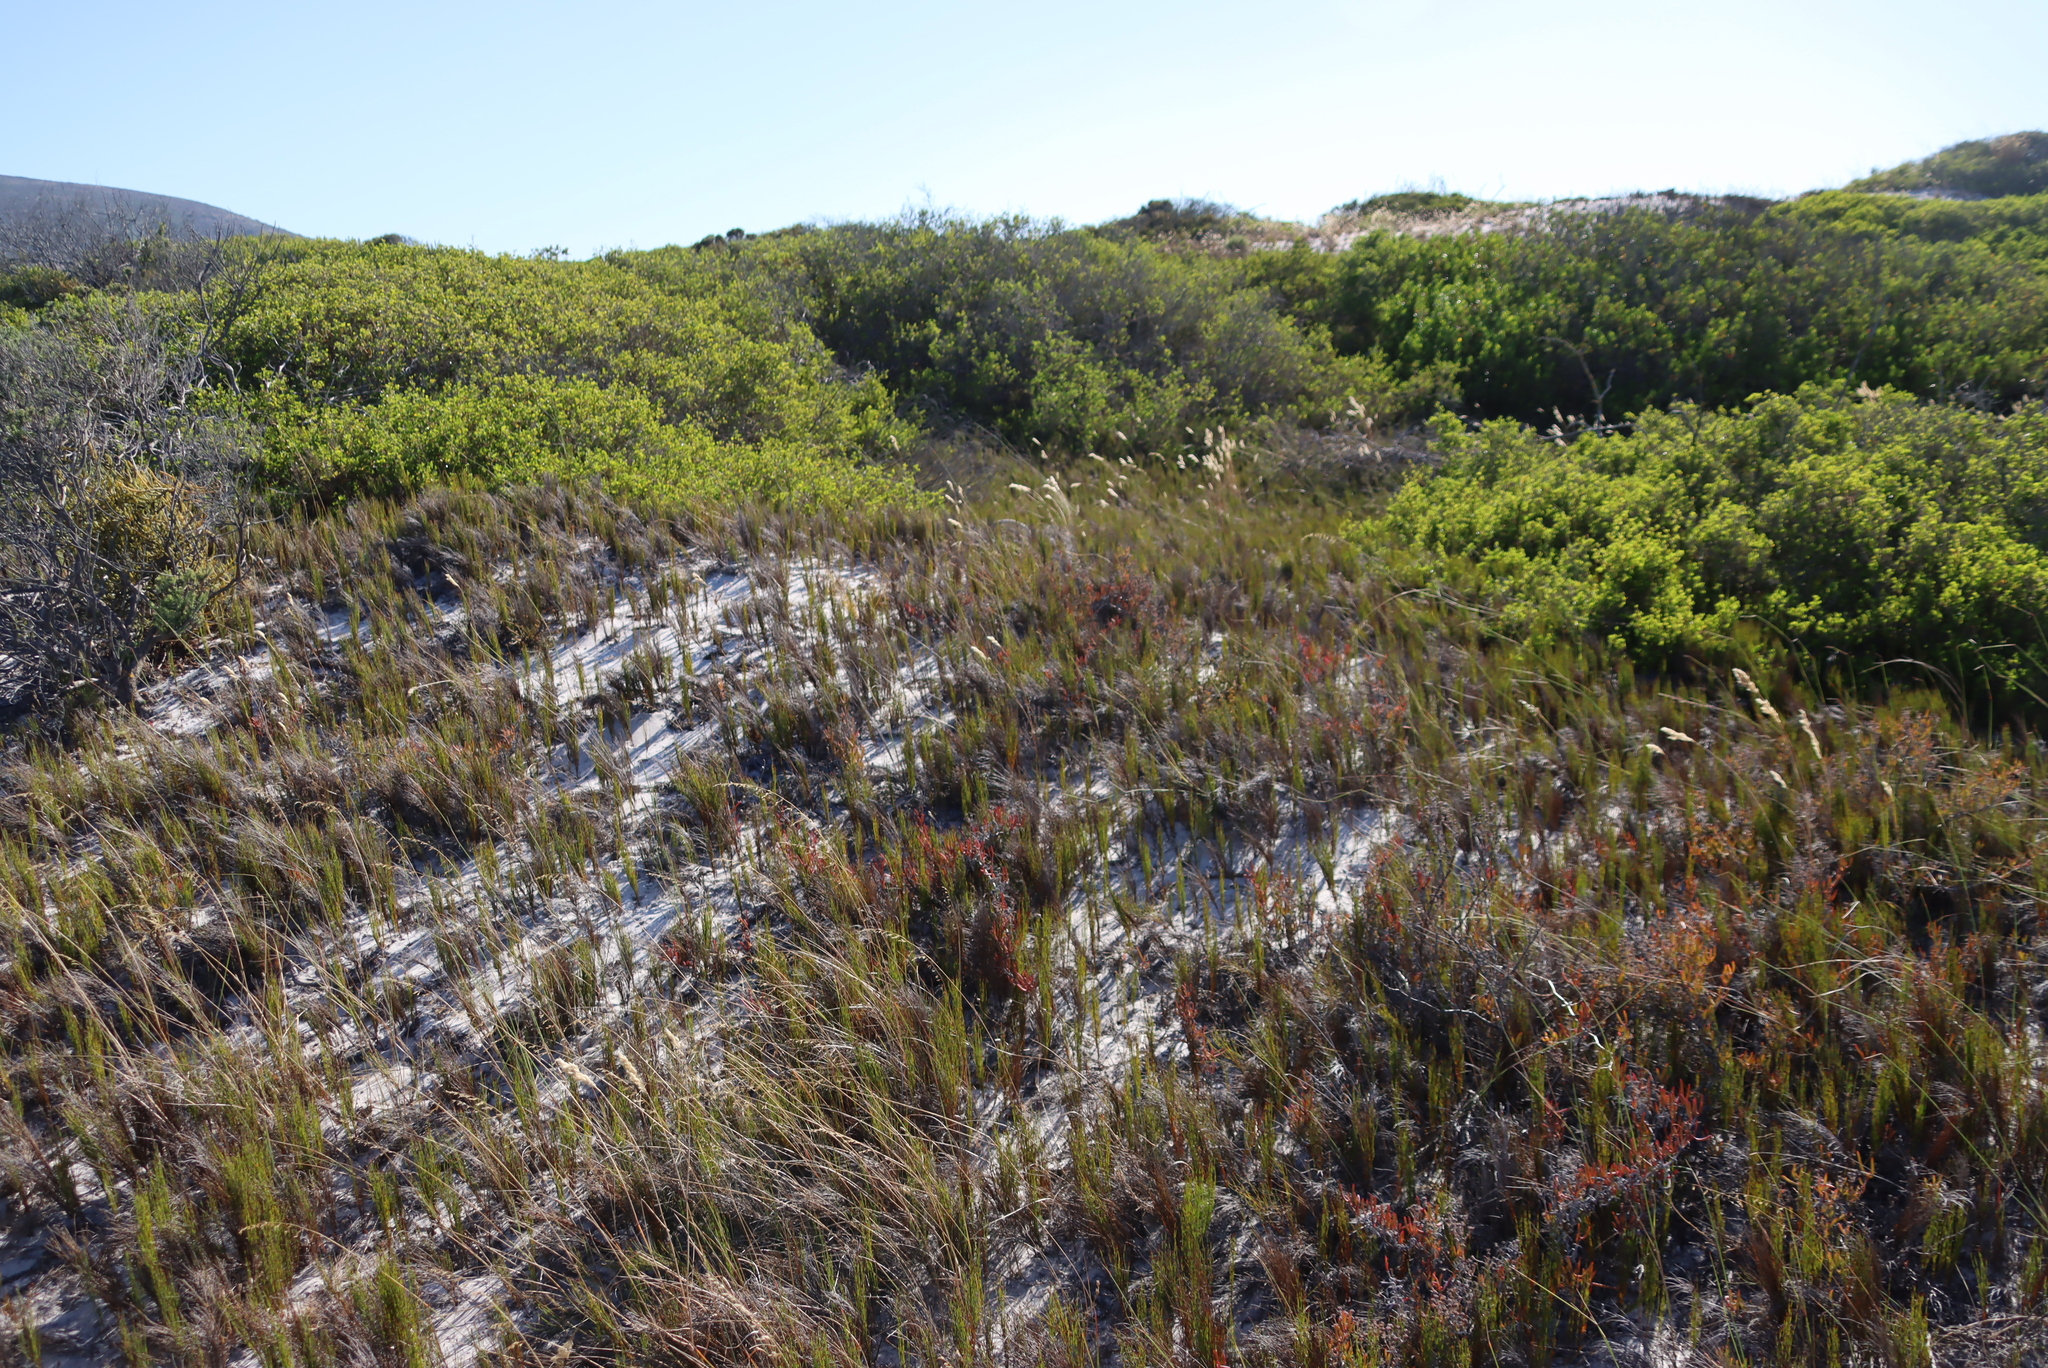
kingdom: Plantae
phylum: Tracheophyta
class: Liliopsida
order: Poales
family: Restionaceae
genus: Restio
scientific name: Restio eleocharis
